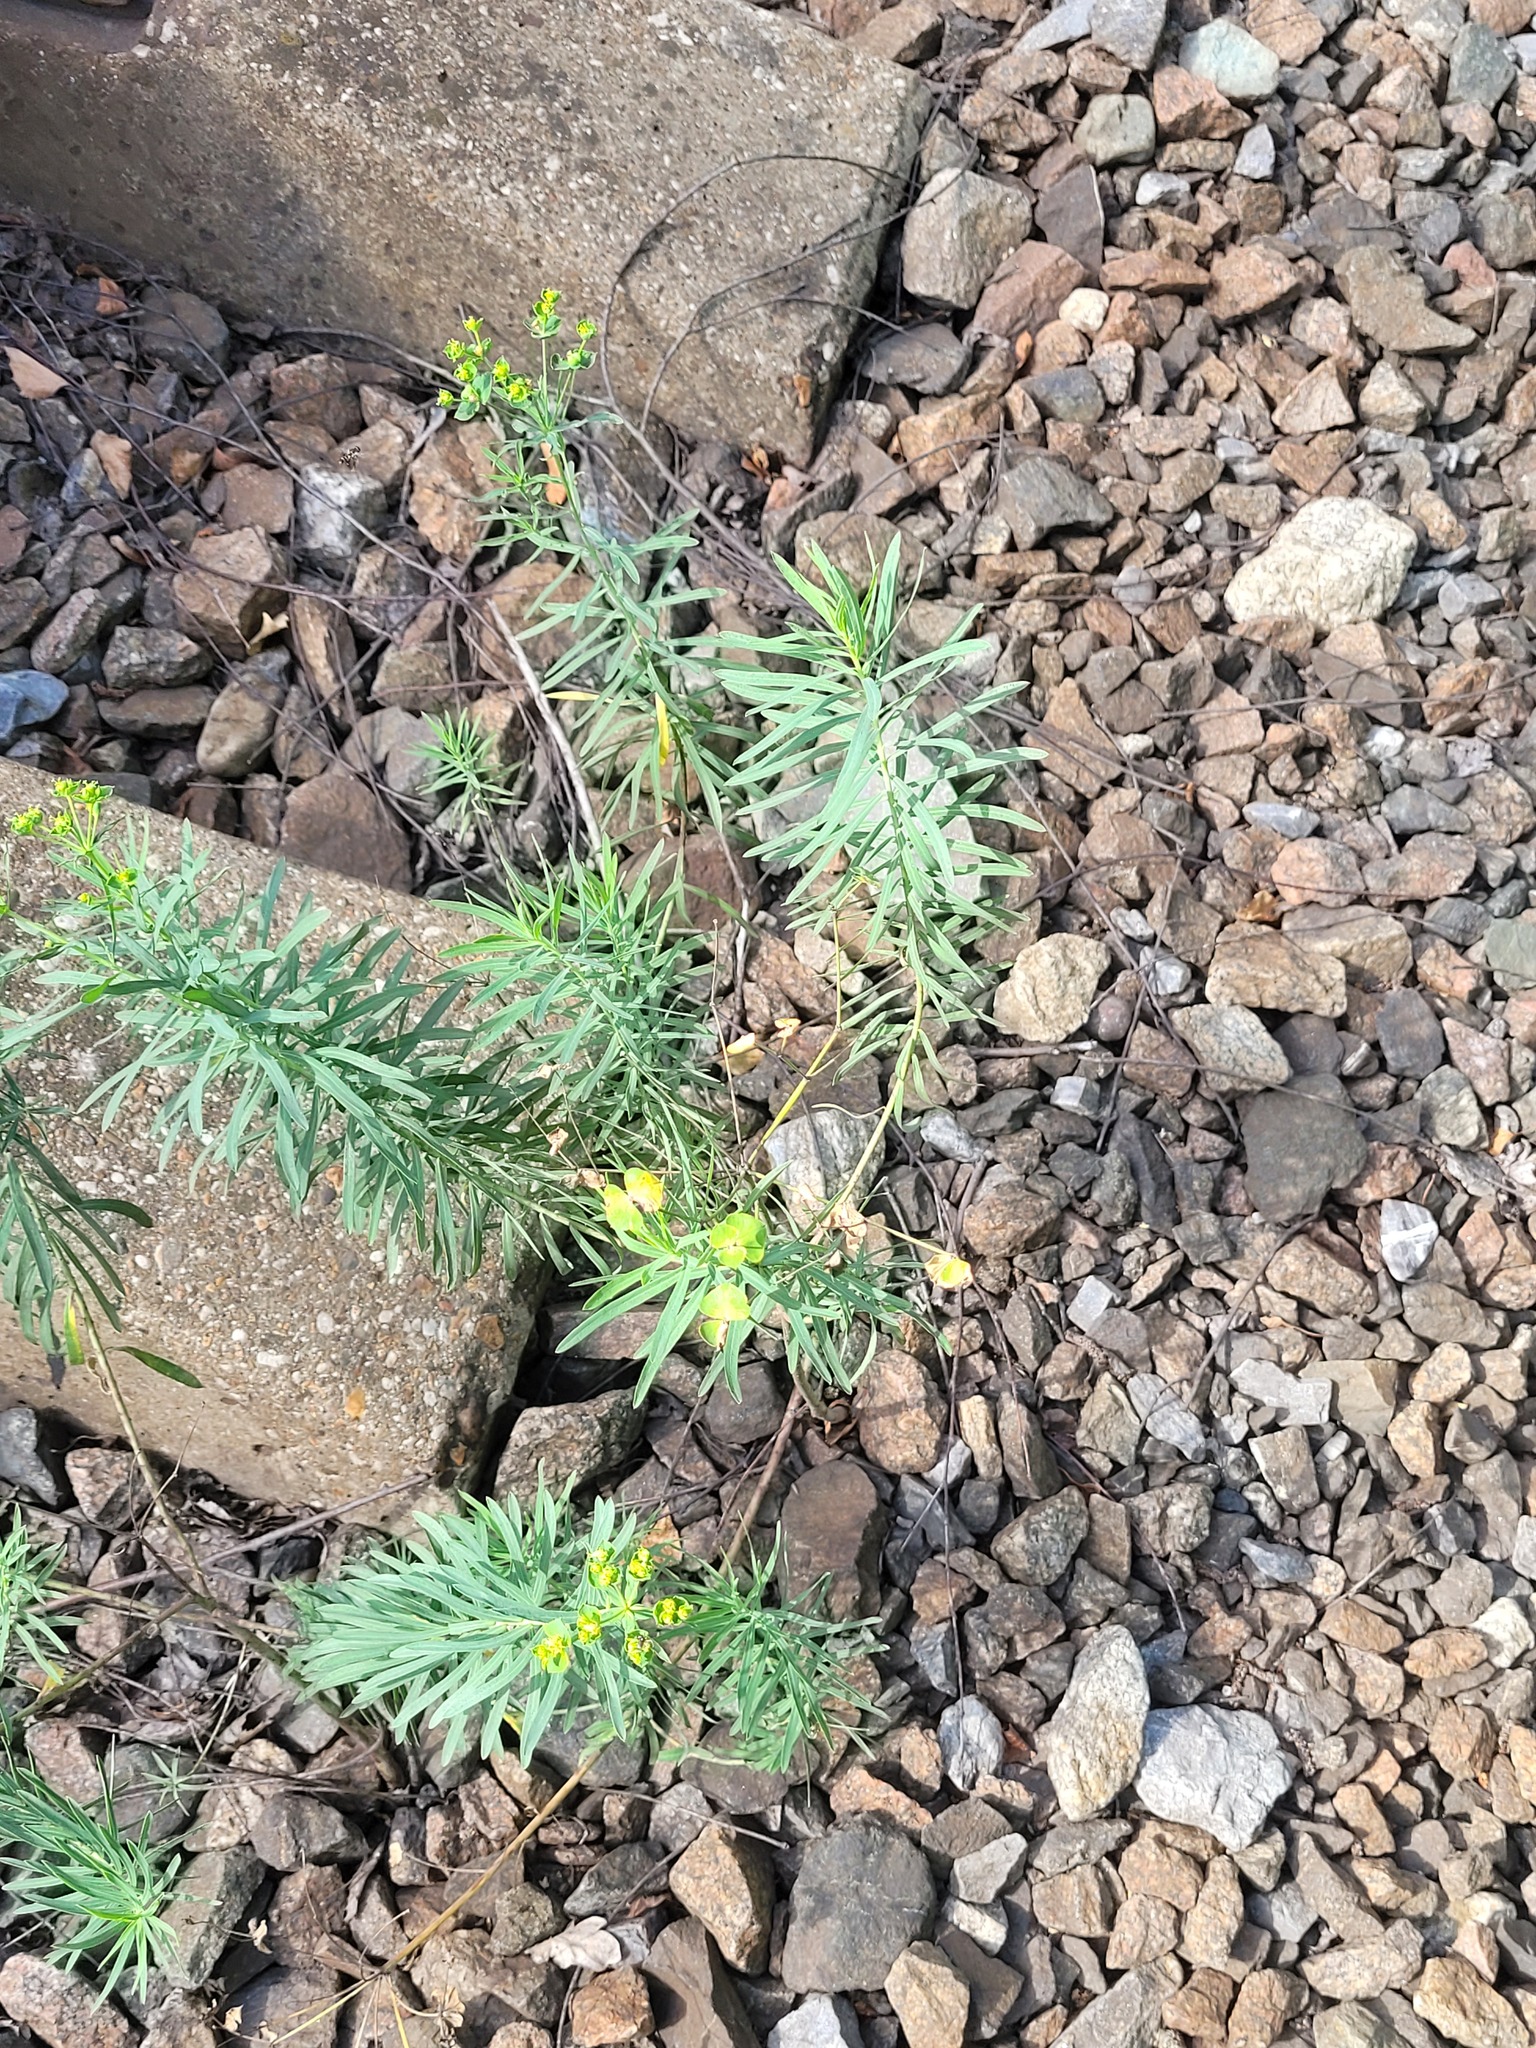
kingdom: Plantae
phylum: Tracheophyta
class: Magnoliopsida
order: Malpighiales
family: Euphorbiaceae
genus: Euphorbia
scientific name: Euphorbia virgata
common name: Leafy spurge
